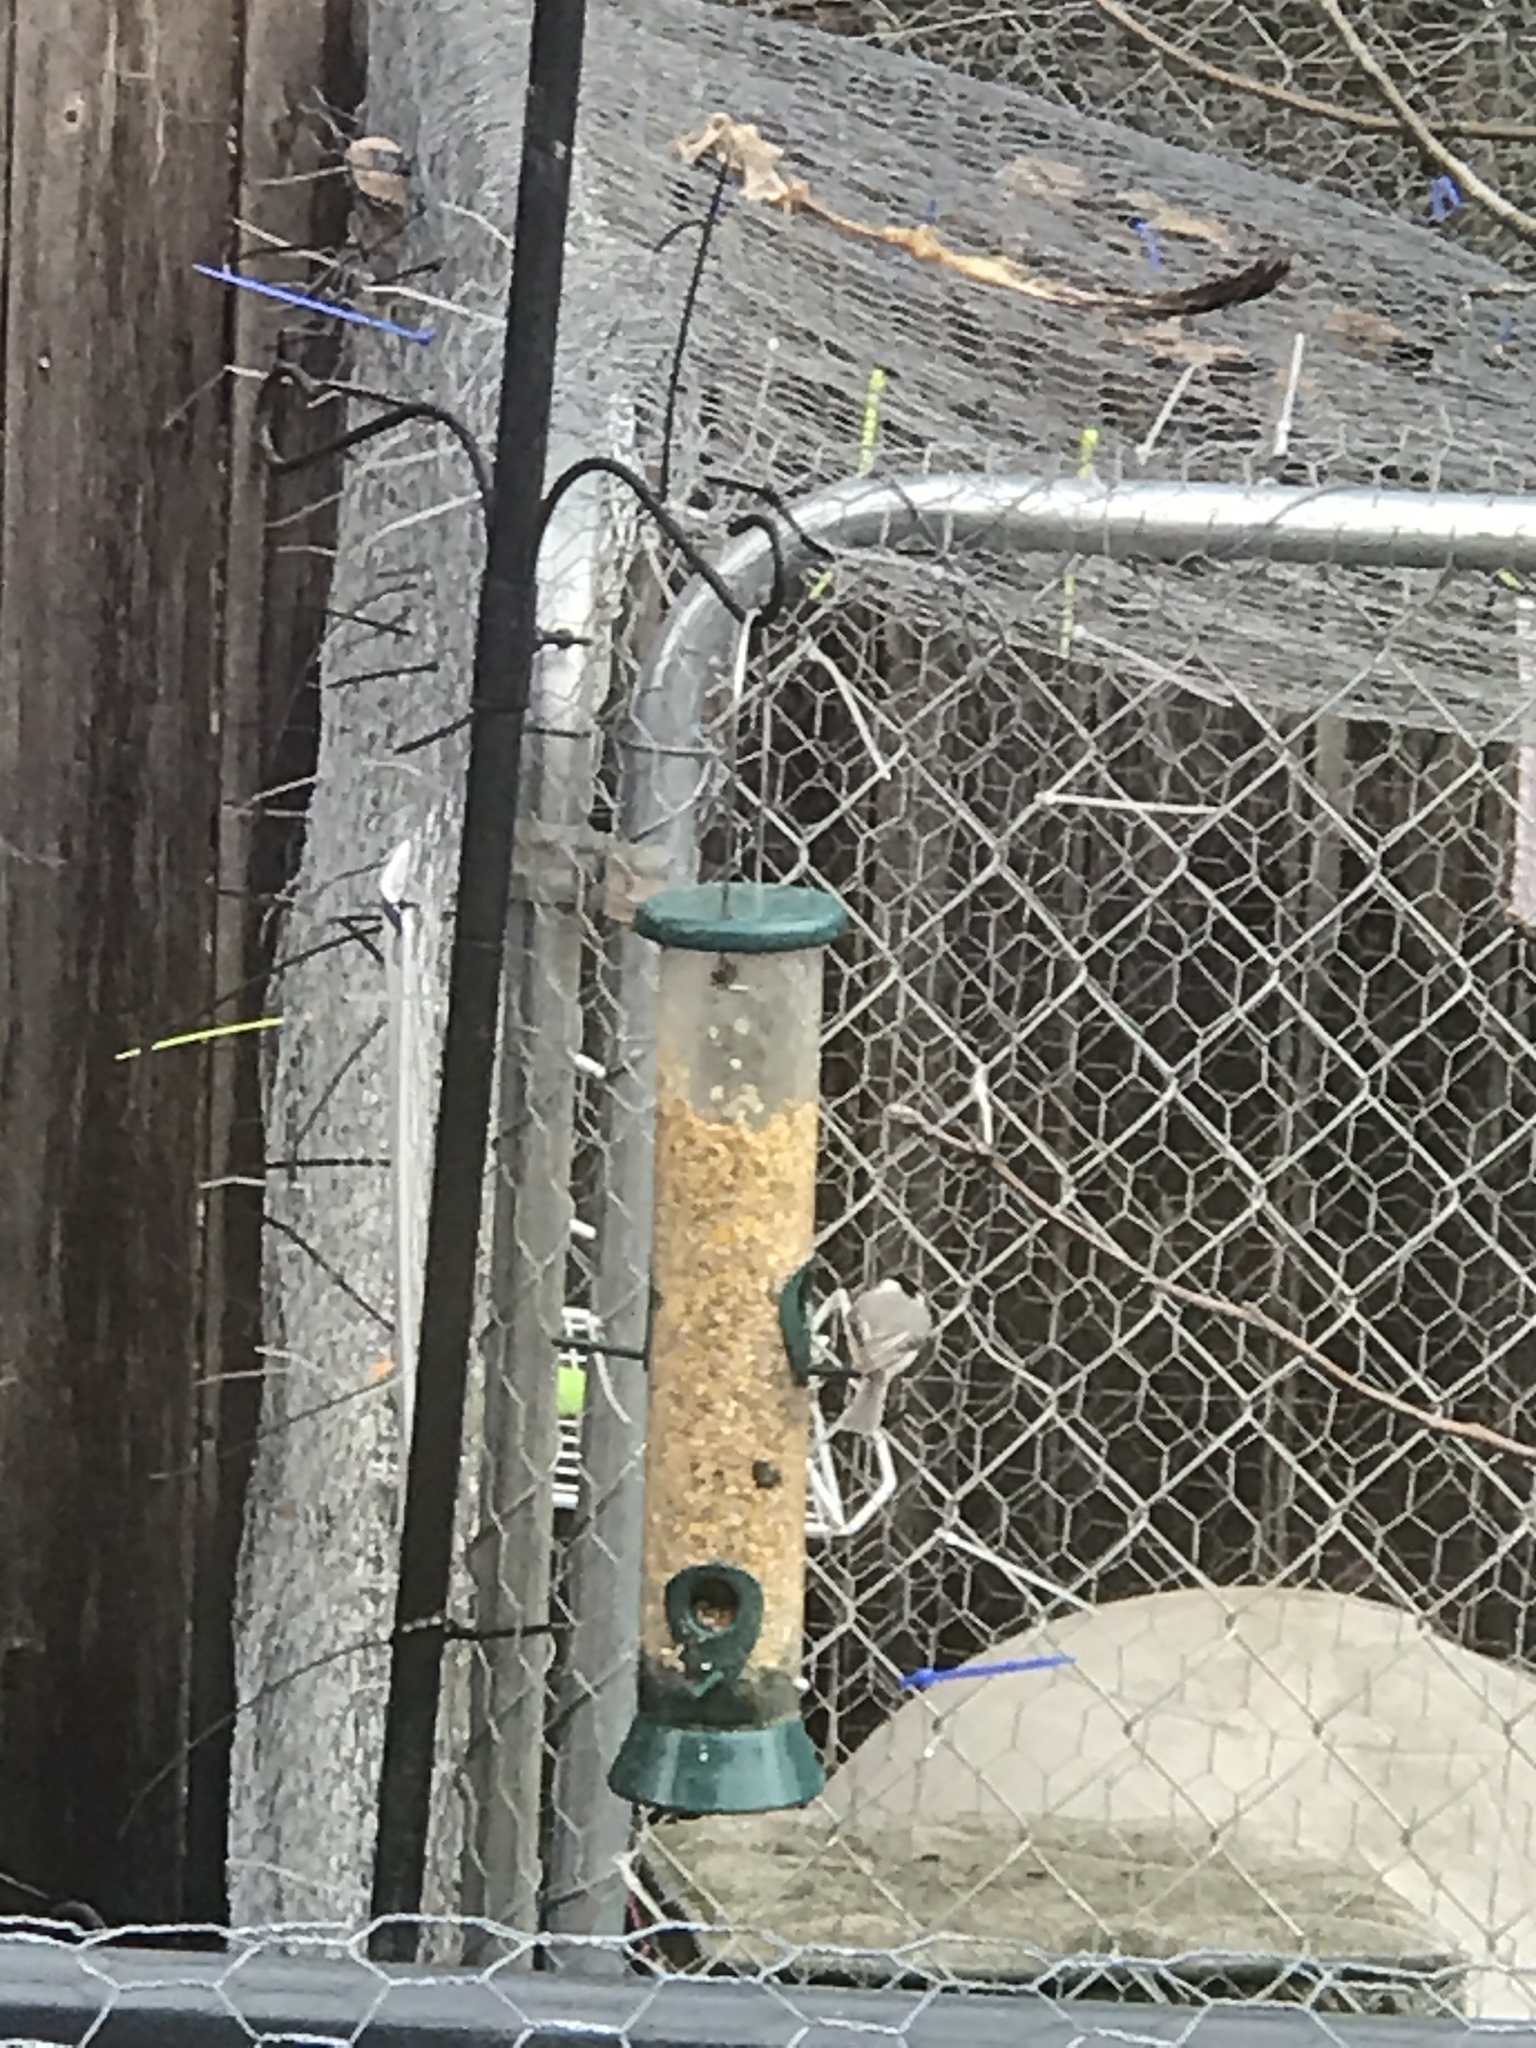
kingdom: Animalia
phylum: Chordata
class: Aves
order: Passeriformes
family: Paridae
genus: Poecile
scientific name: Poecile carolinensis
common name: Carolina chickadee
